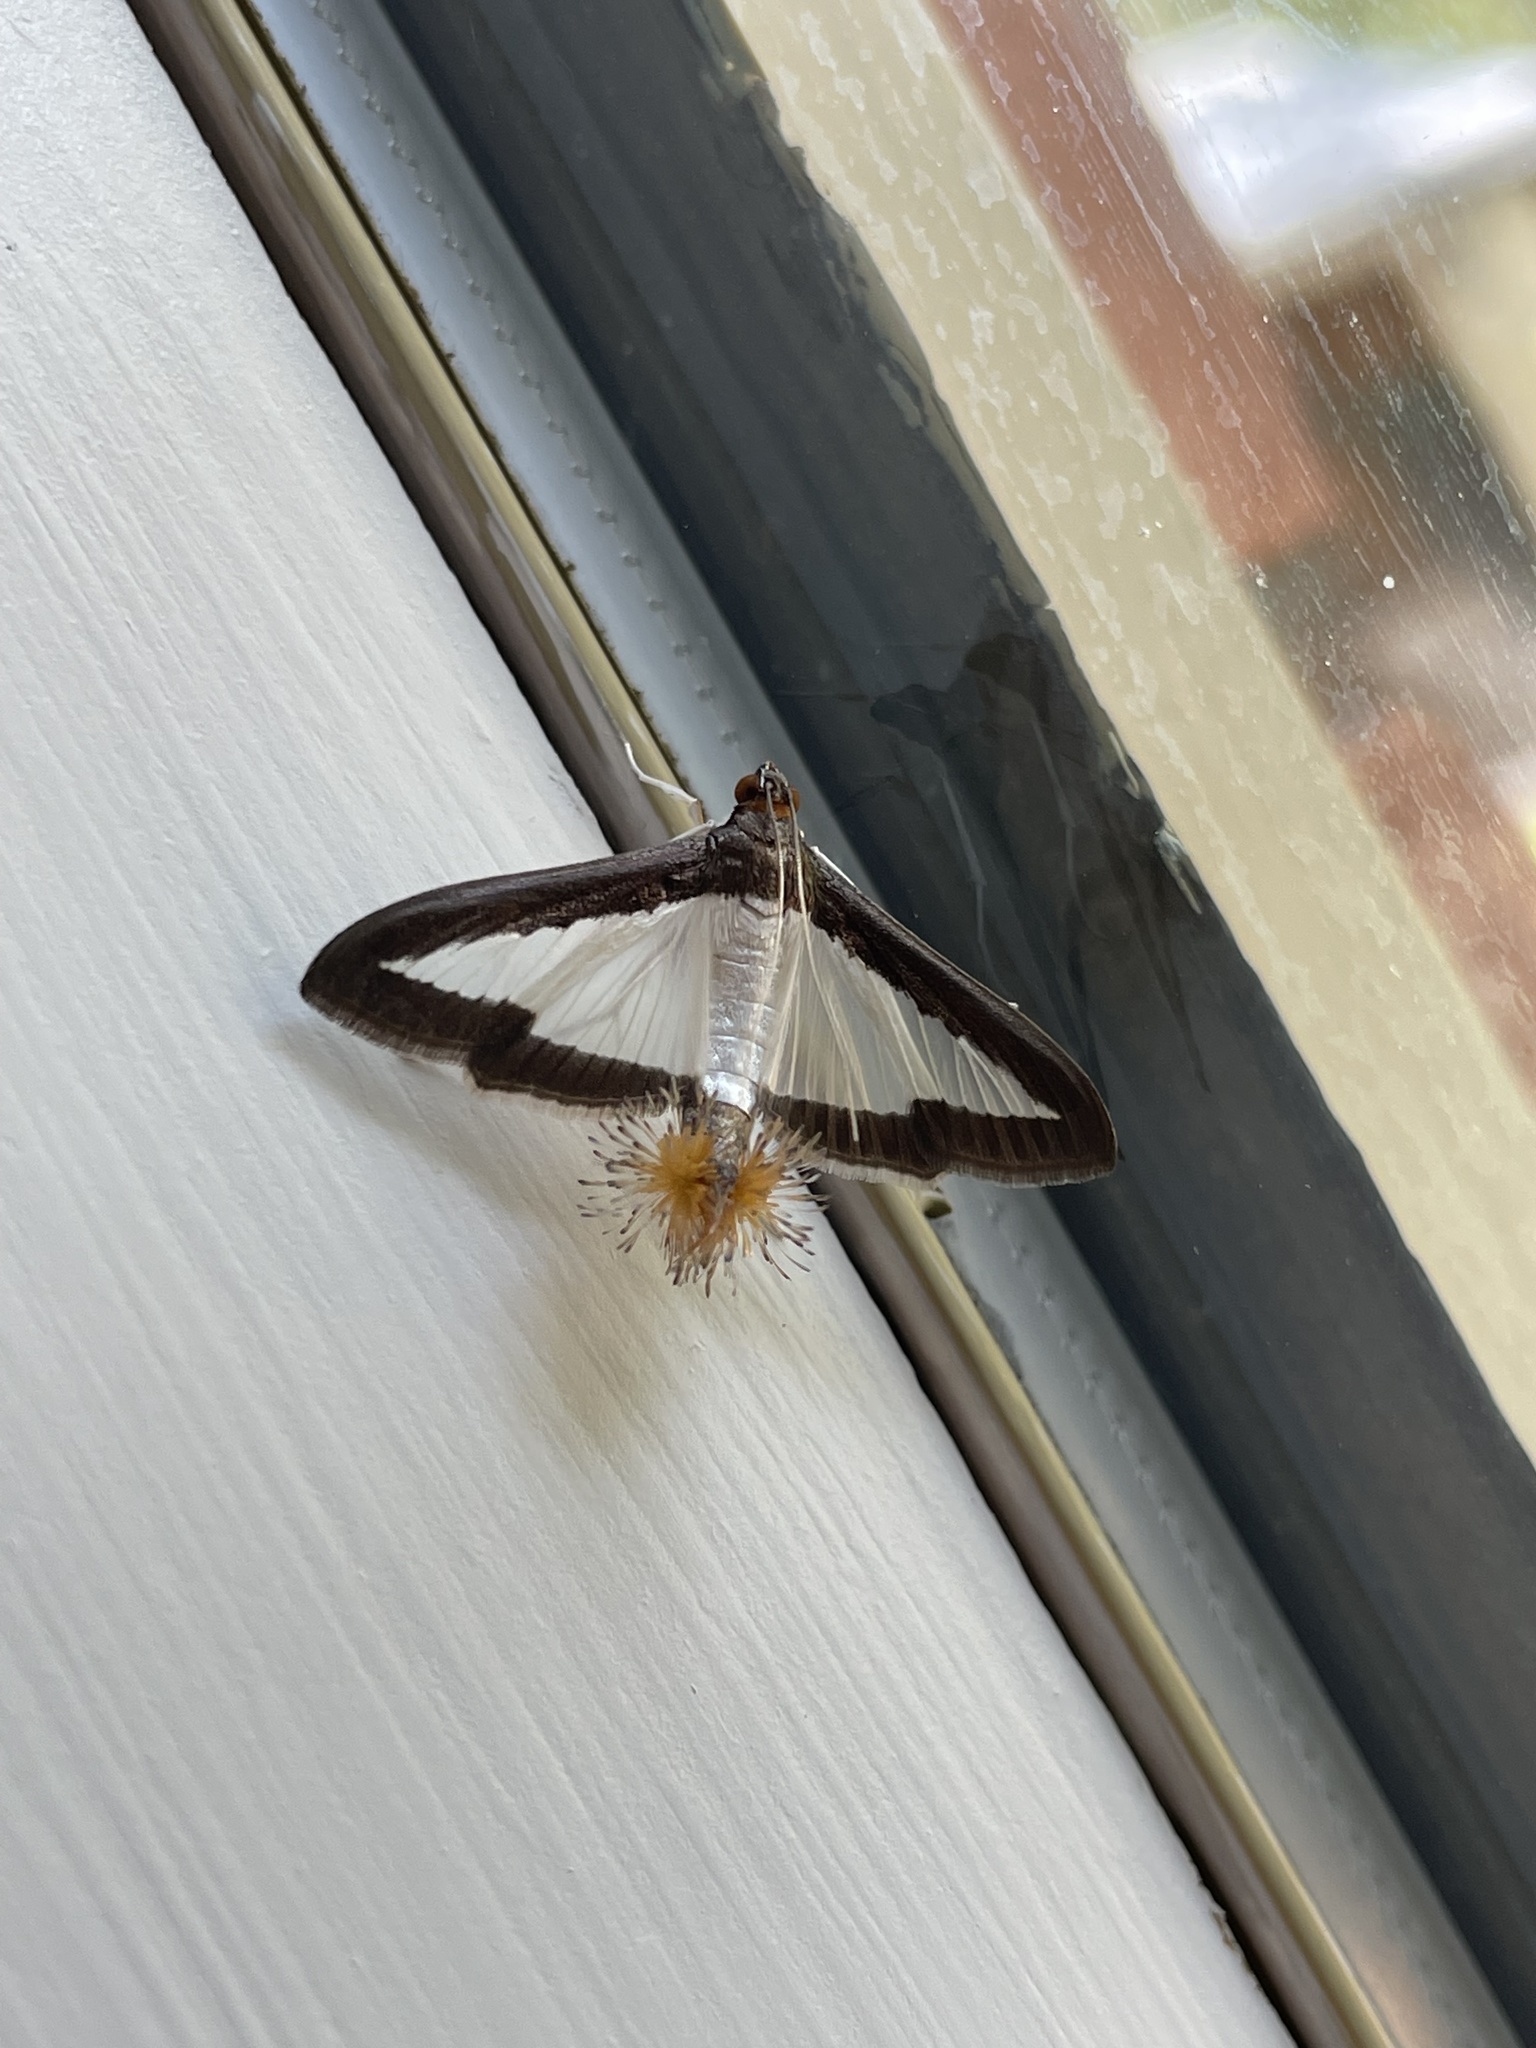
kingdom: Animalia
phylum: Arthropoda
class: Insecta
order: Lepidoptera
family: Crambidae
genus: Diaphania
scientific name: Diaphania hyalinata
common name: Melonworm
